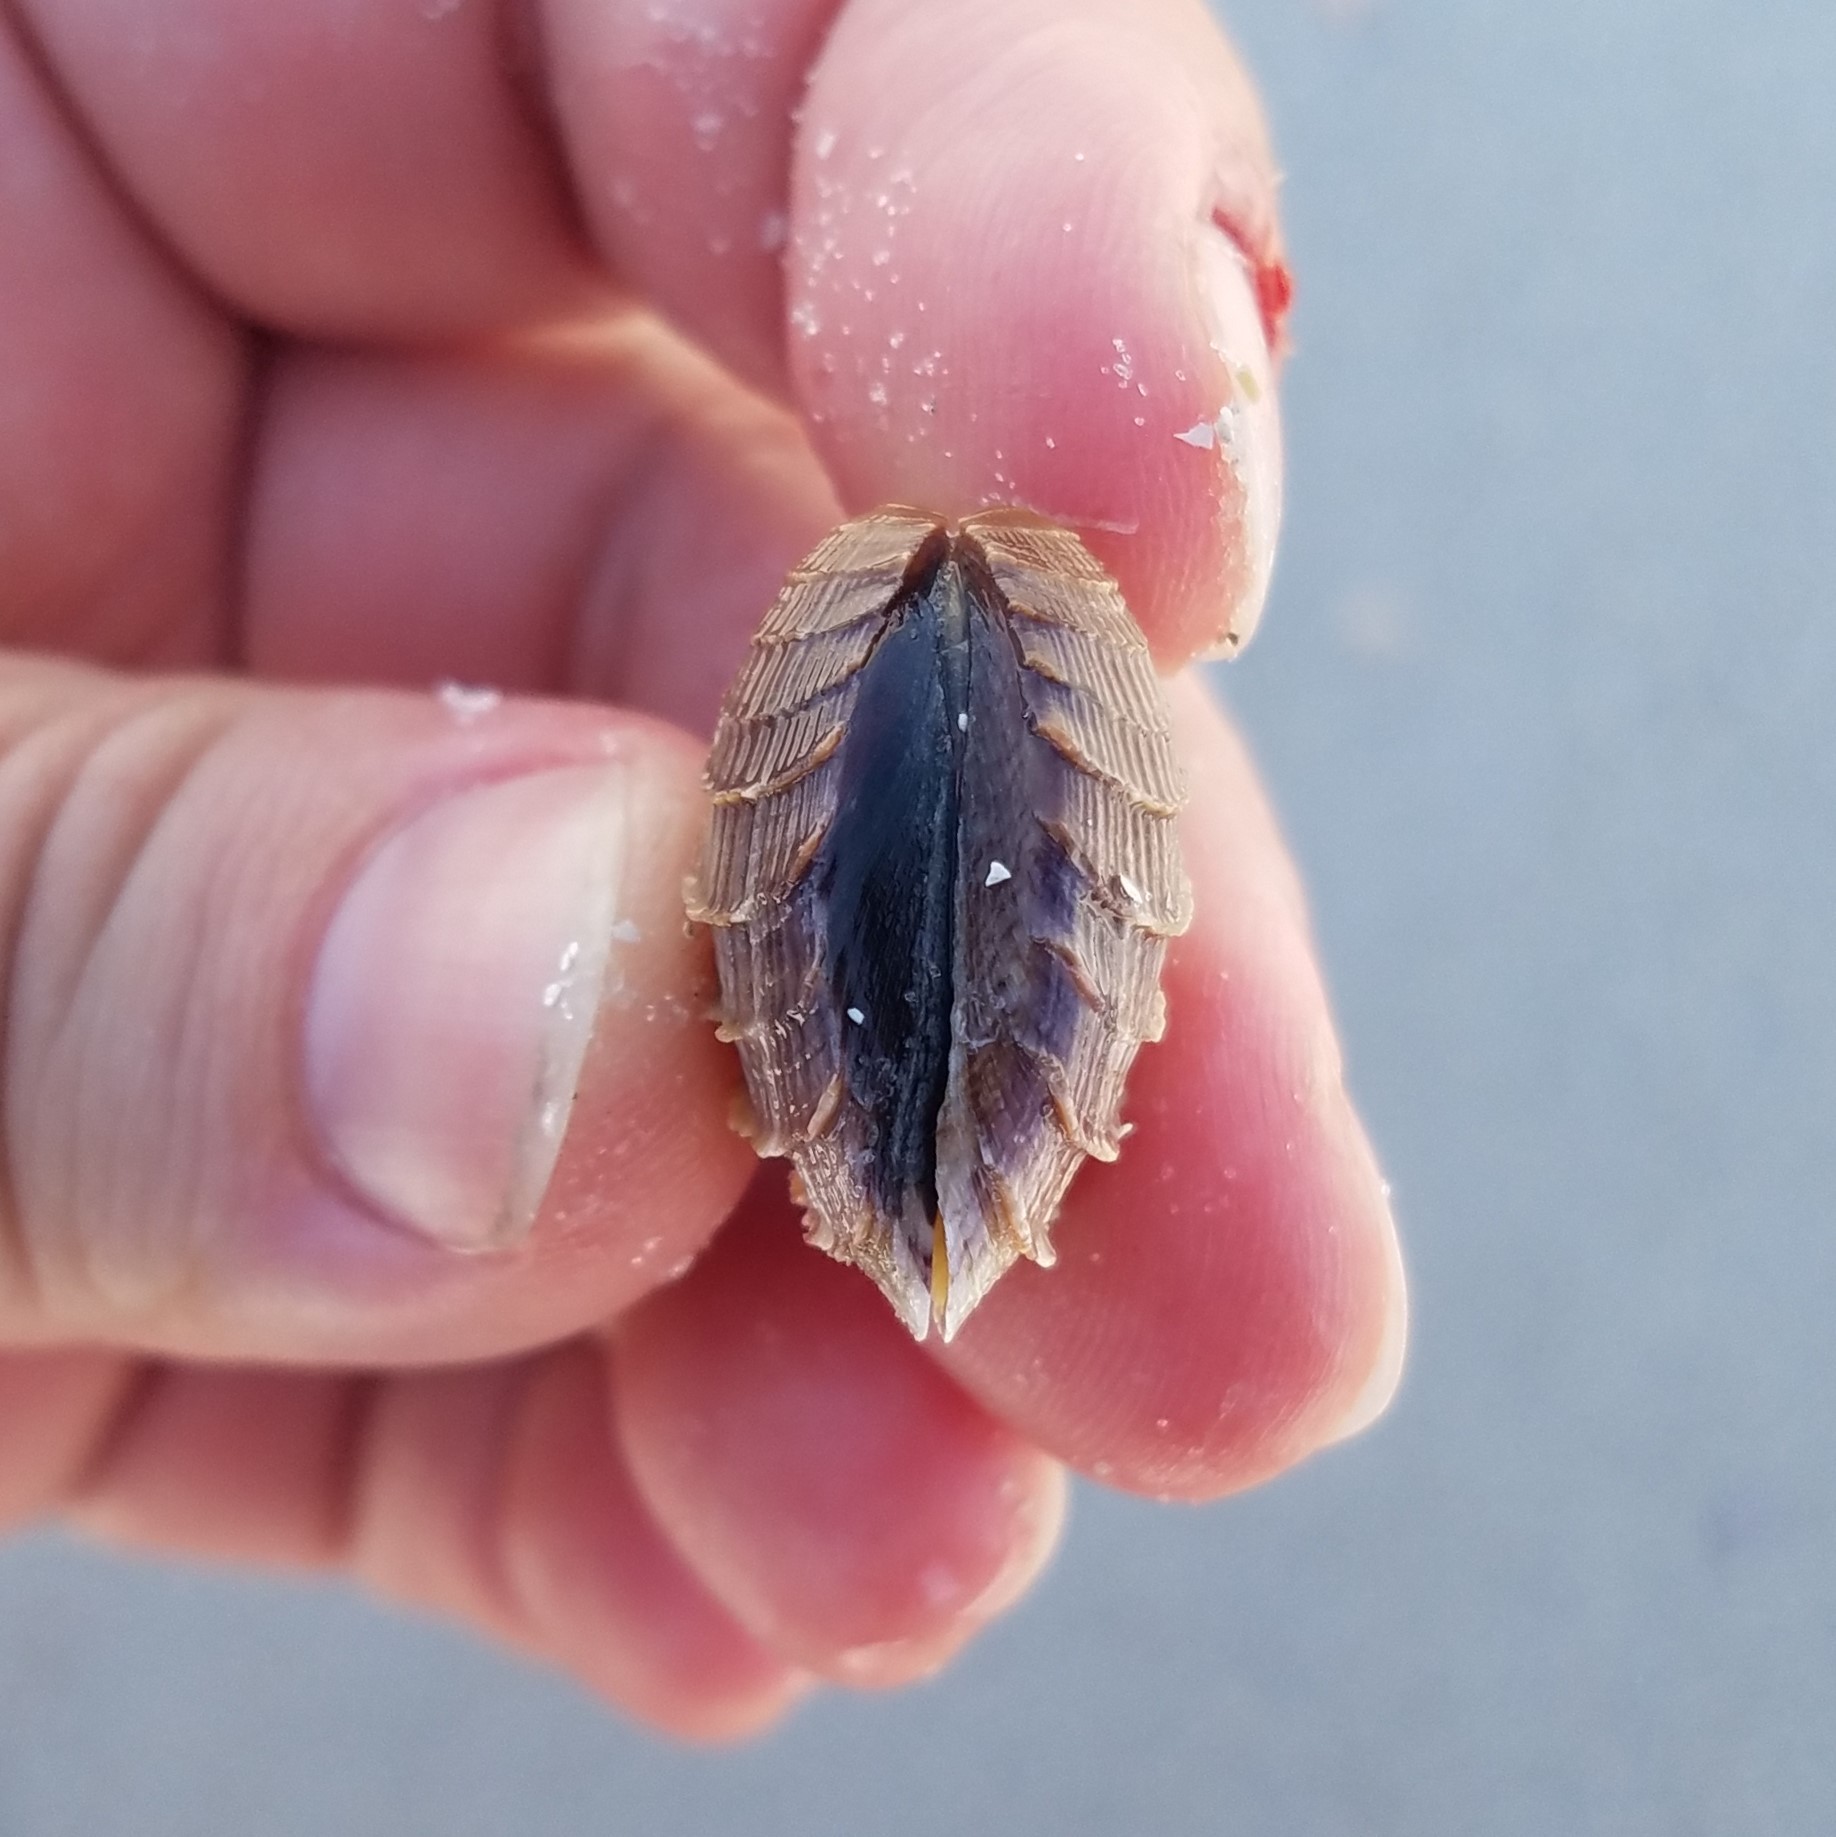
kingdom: Animalia
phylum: Mollusca
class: Bivalvia
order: Venerida
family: Veneridae
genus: Chione
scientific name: Chione elevata
